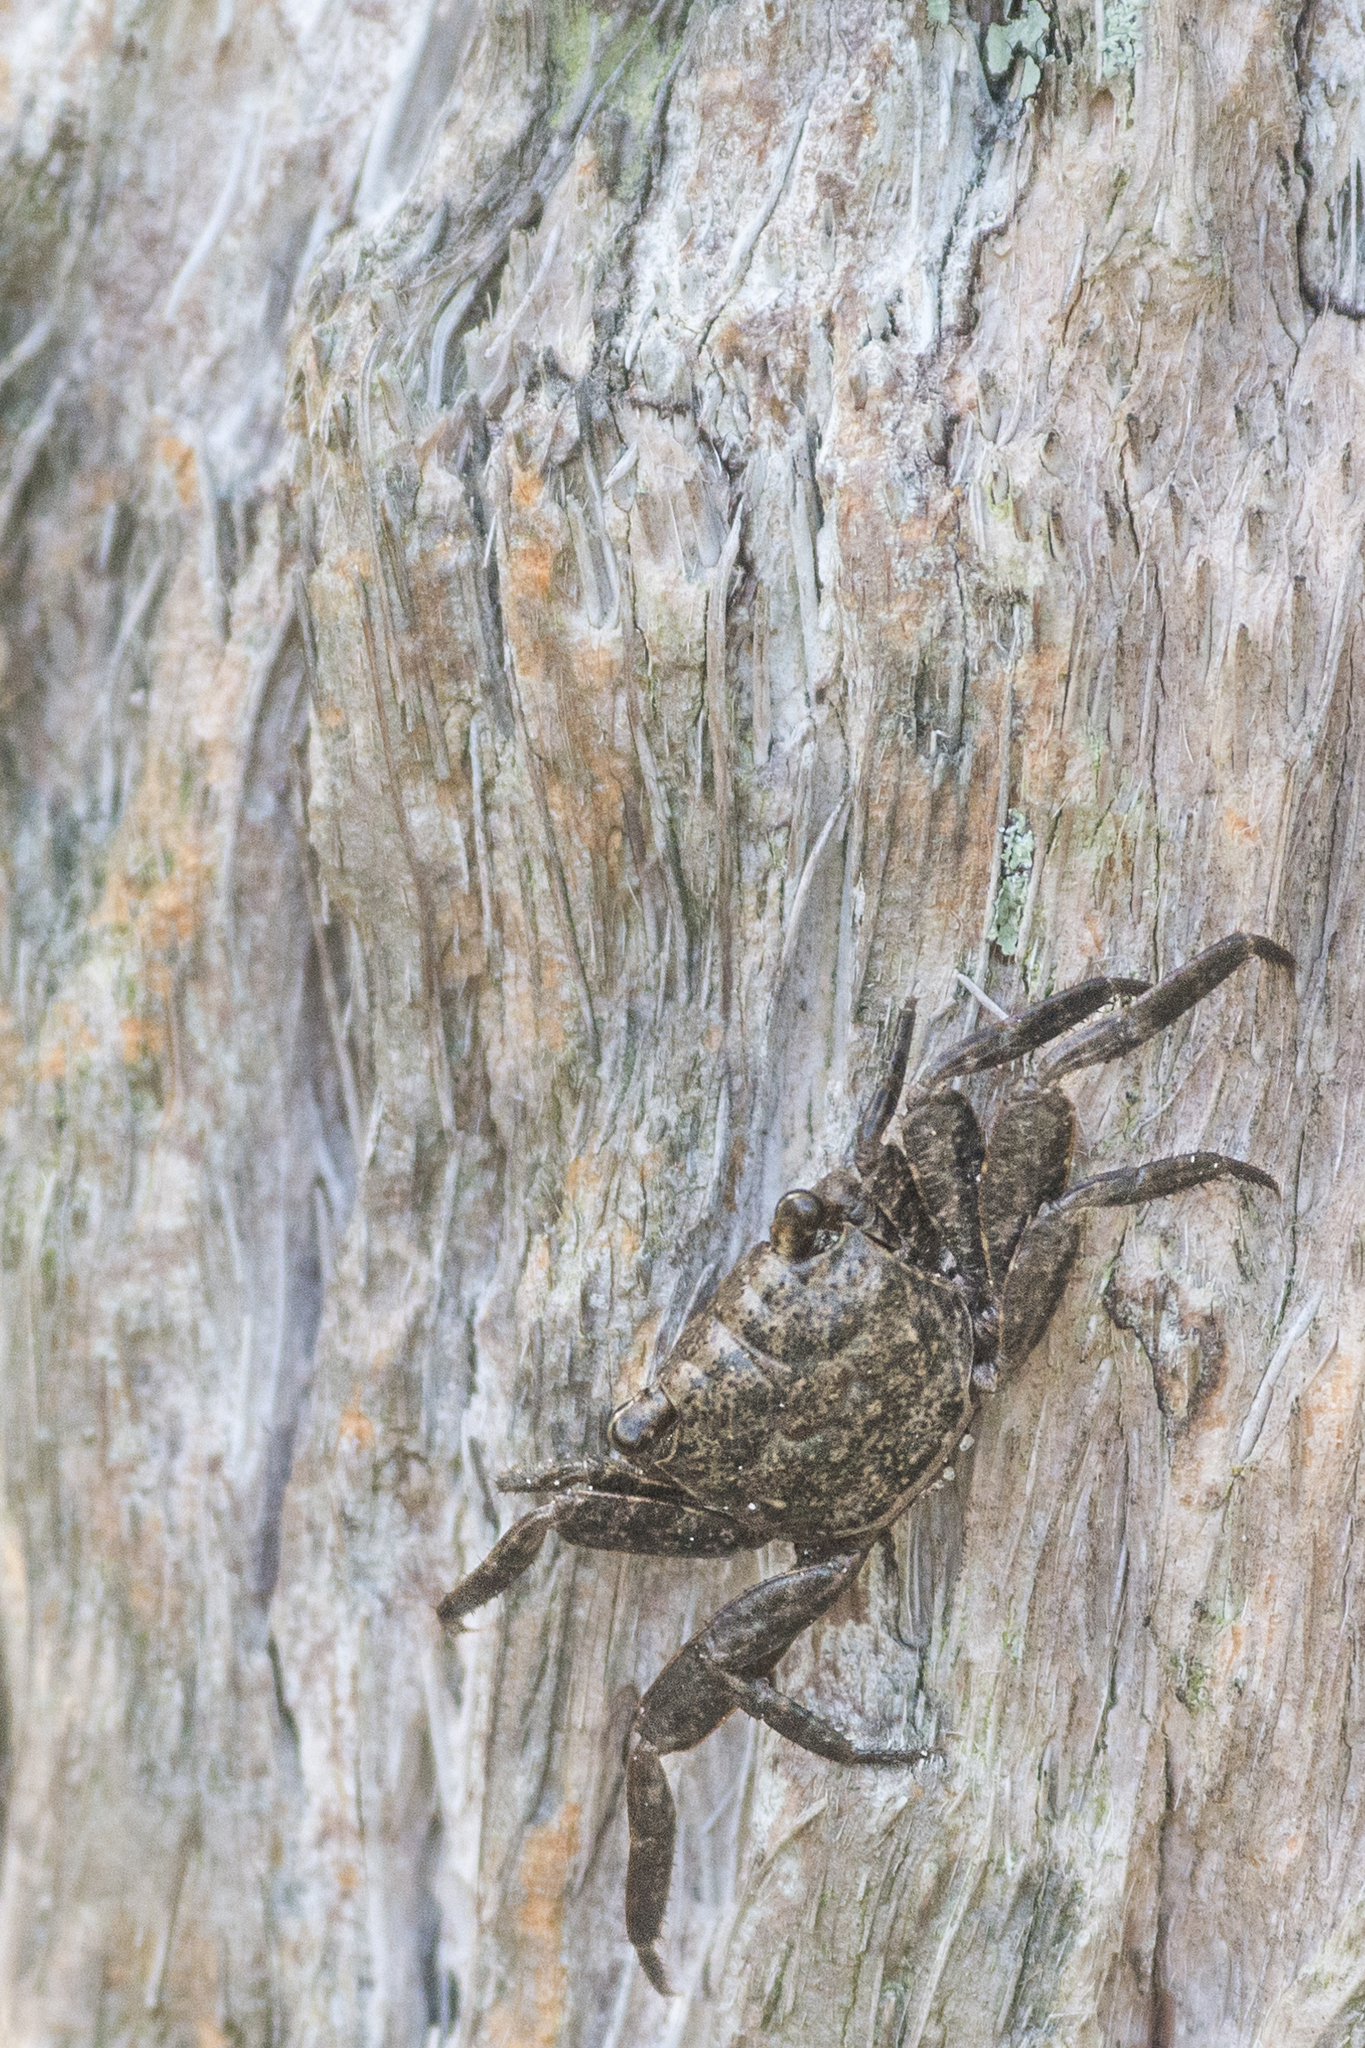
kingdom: Animalia
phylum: Arthropoda
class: Malacostraca
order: Decapoda
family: Sesarmidae
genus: Armases
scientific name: Armases cinereum
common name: Squareback marsh crab
